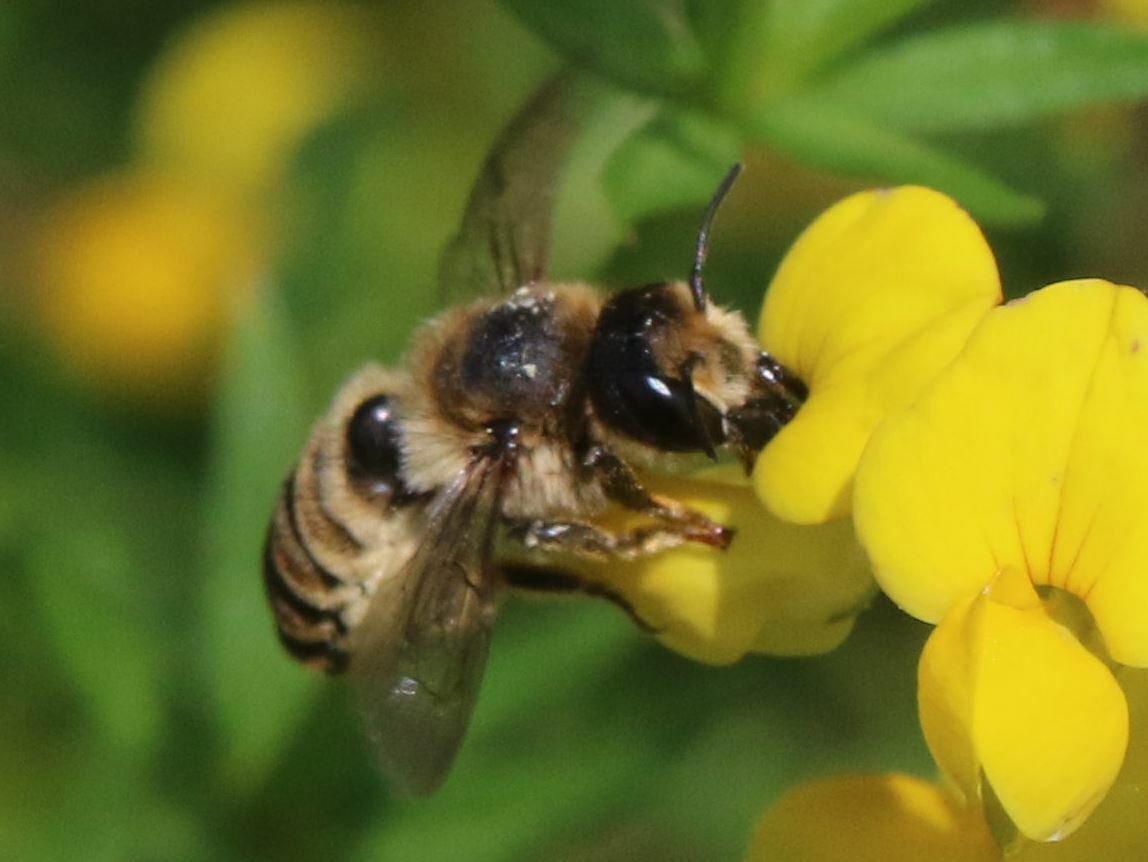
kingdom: Animalia
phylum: Arthropoda
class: Insecta
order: Hymenoptera
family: Megachilidae
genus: Megachile
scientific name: Megachile ericetorum
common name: Leafcutter bee
